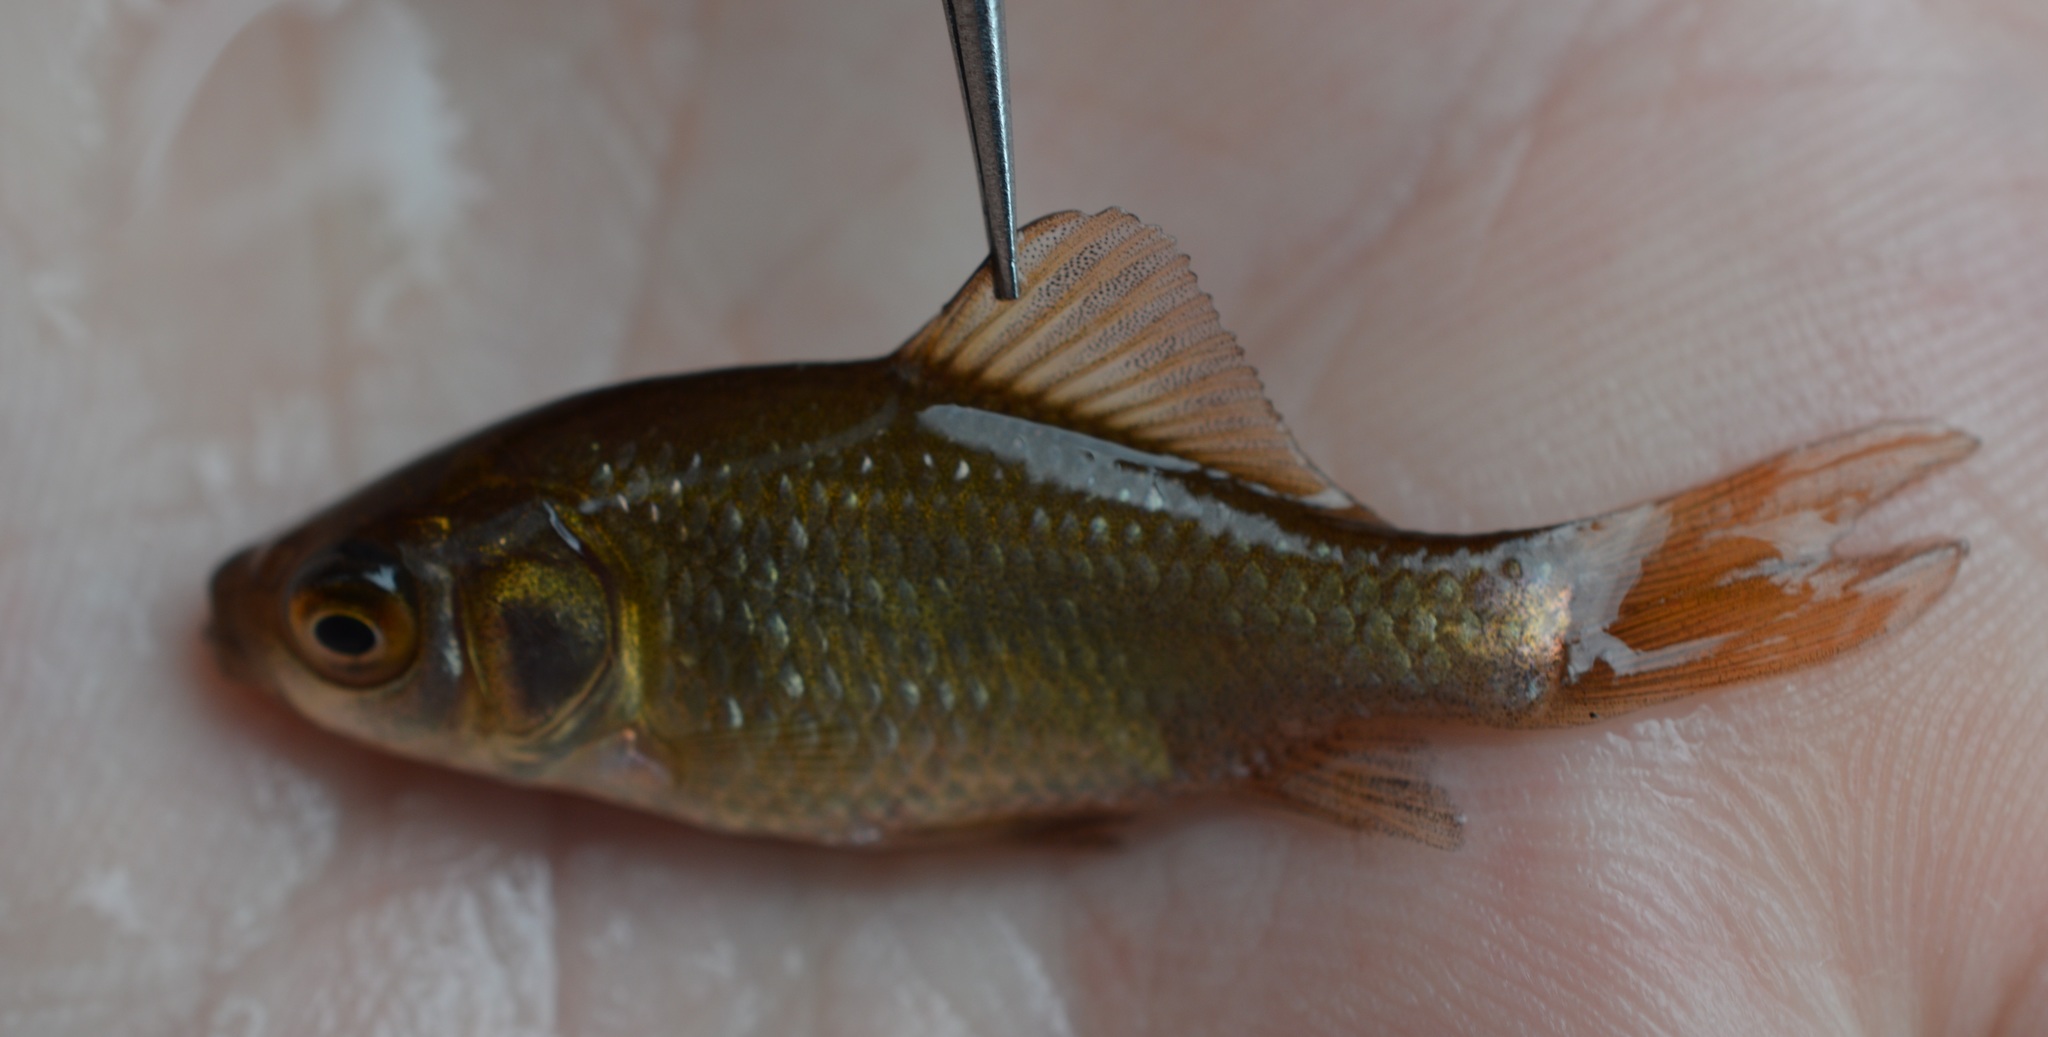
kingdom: Animalia
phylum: Chordata
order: Cypriniformes
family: Cyprinidae
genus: Carassius
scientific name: Carassius gibelio
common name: Prussian carp
